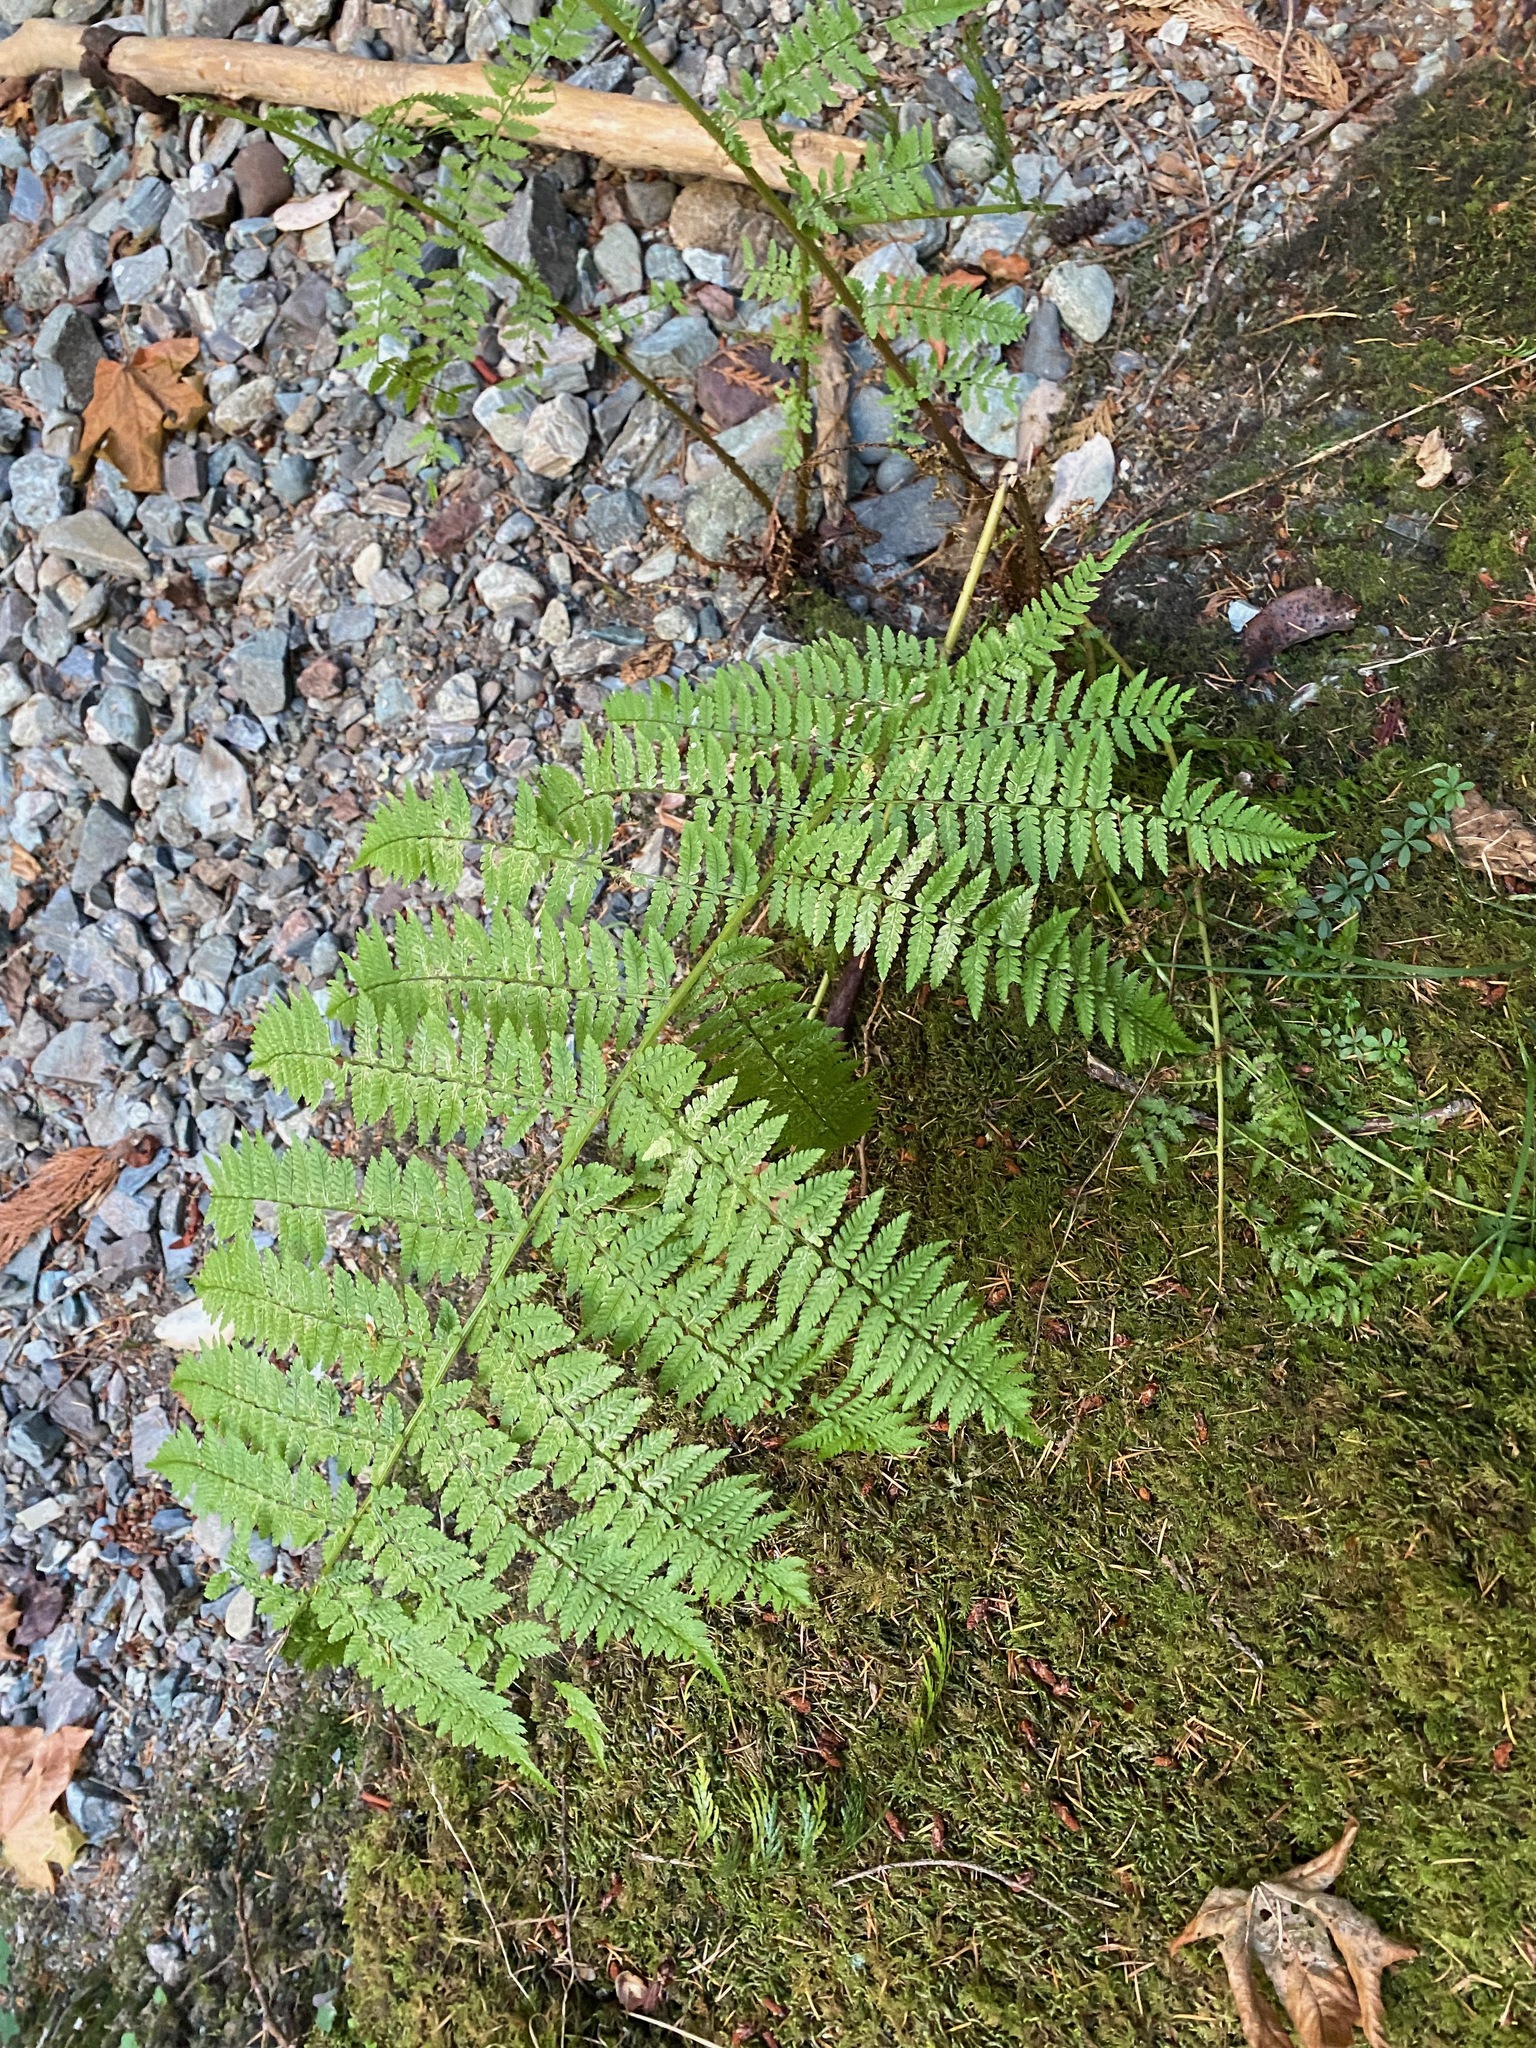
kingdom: Plantae
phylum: Tracheophyta
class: Polypodiopsida
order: Polypodiales
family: Athyriaceae
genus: Athyrium
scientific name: Athyrium cyclosorum
